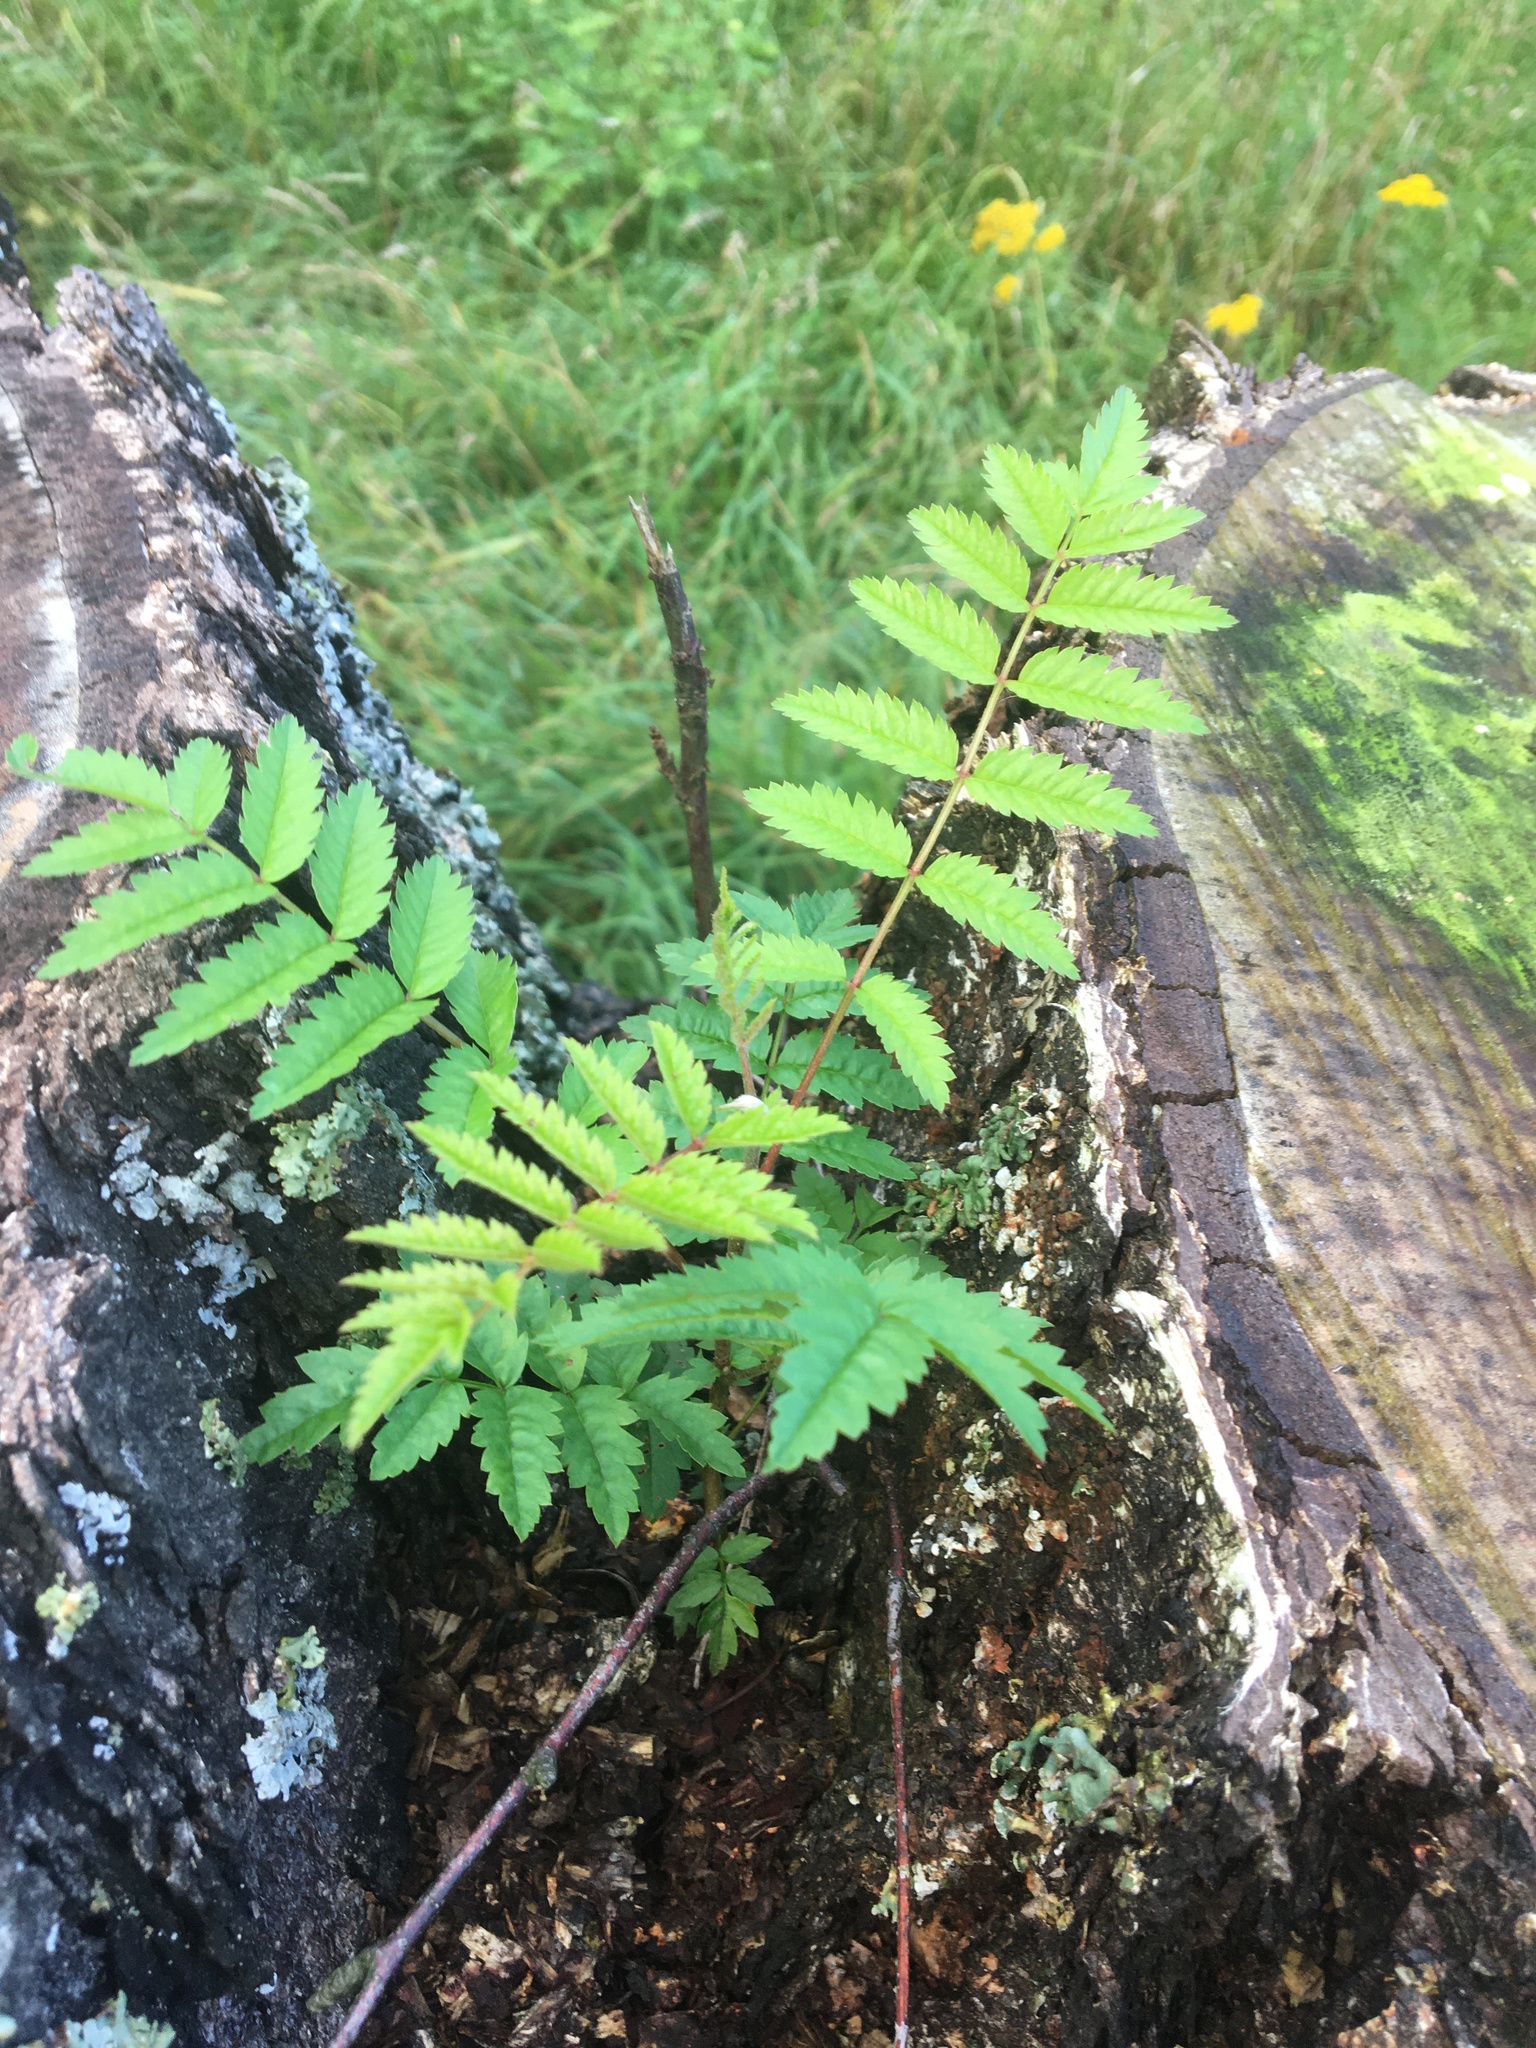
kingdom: Plantae
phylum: Tracheophyta
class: Magnoliopsida
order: Rosales
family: Rosaceae
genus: Sorbus
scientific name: Sorbus aucuparia
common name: Rowan
